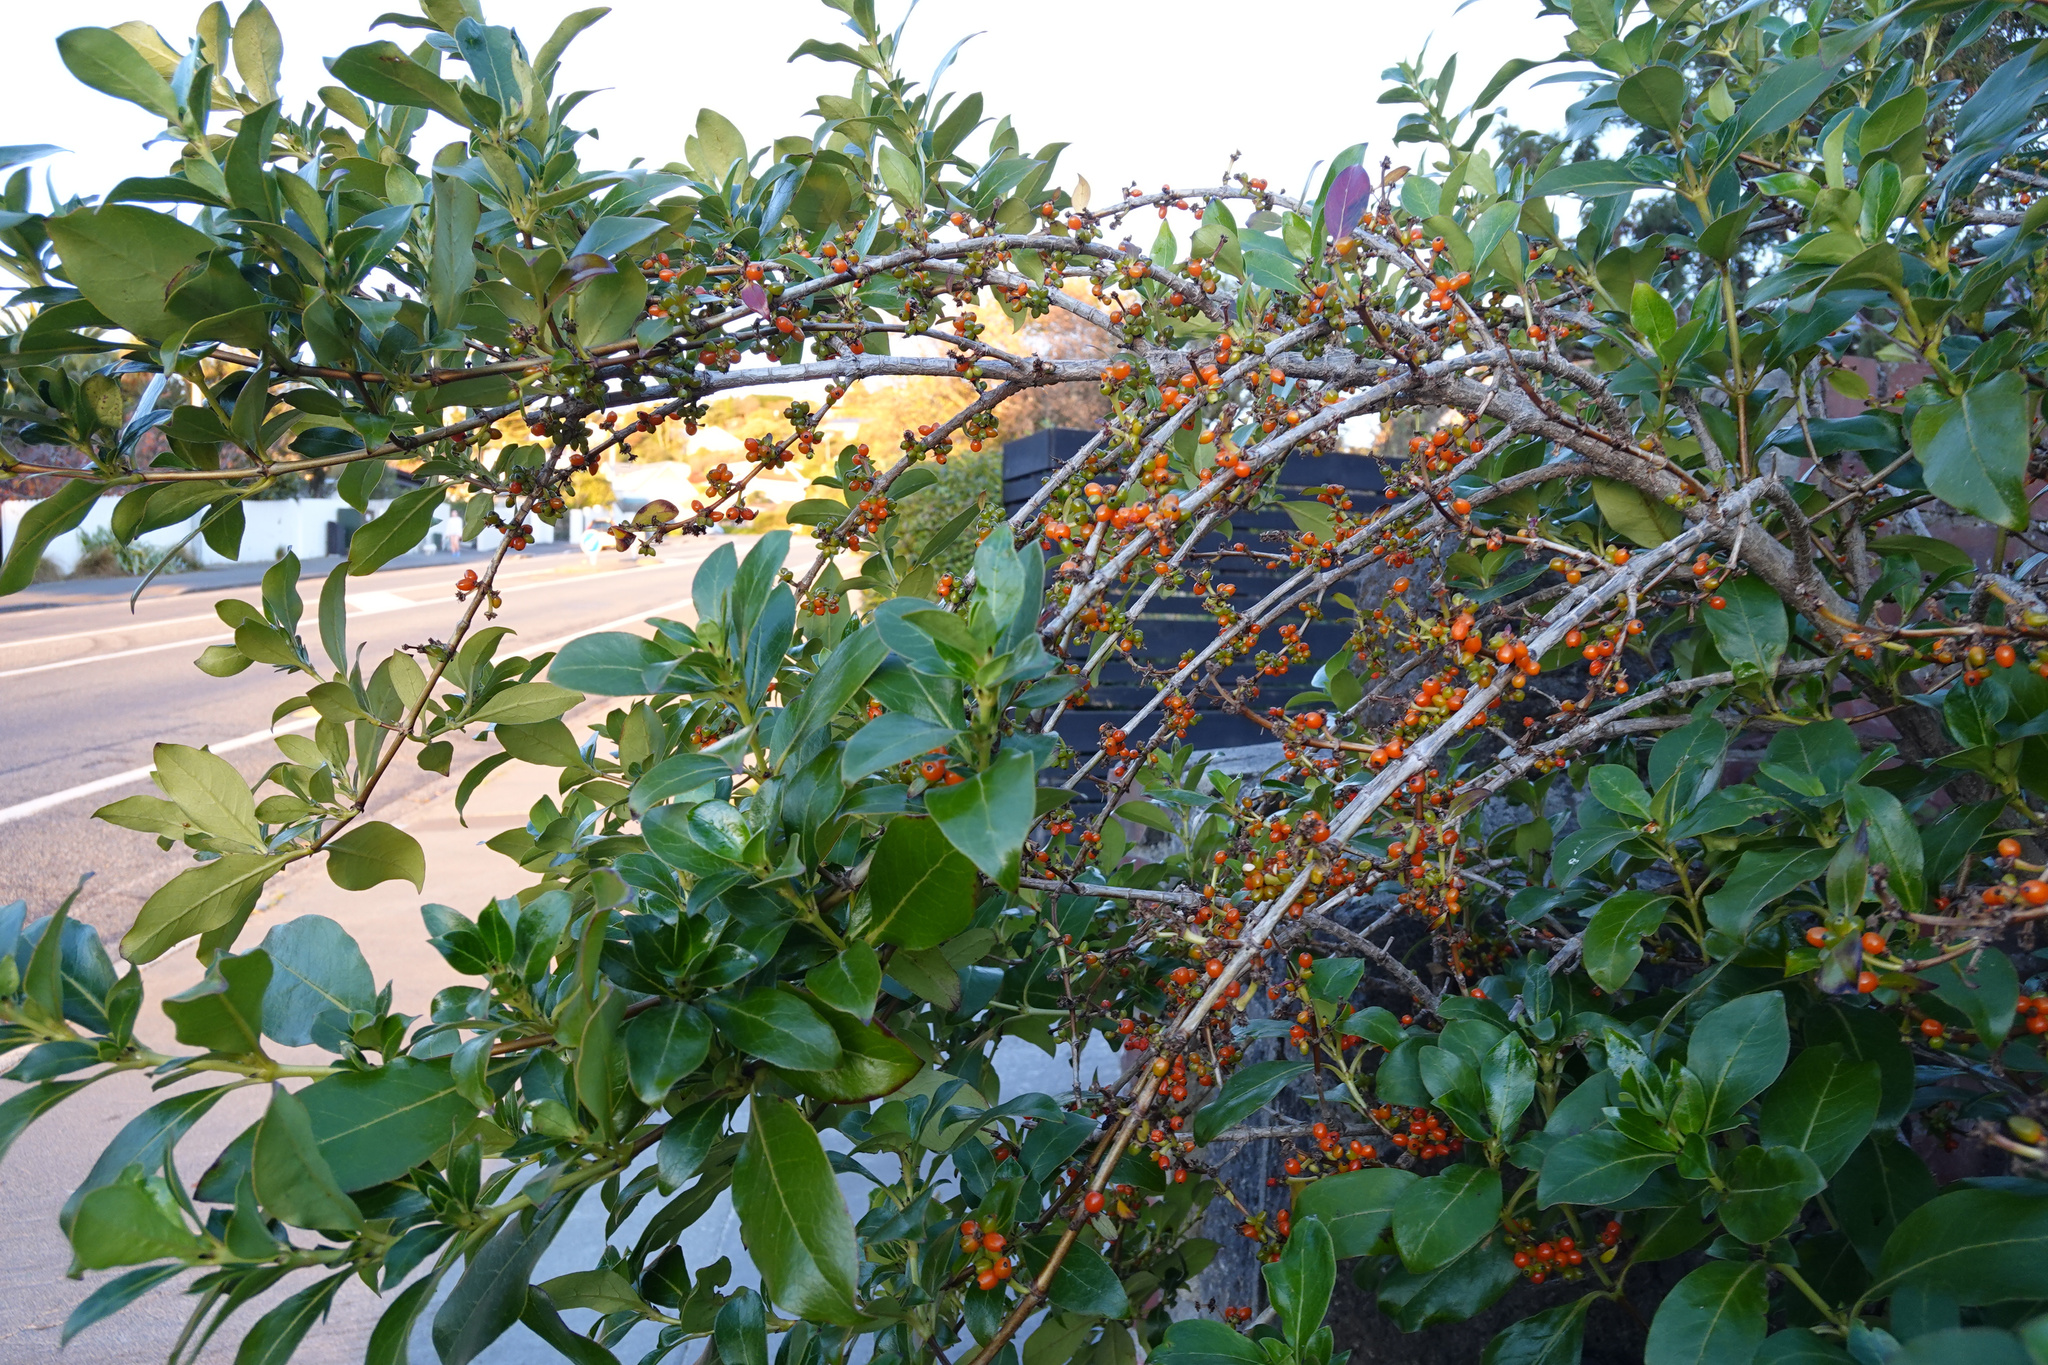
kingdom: Plantae
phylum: Tracheophyta
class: Magnoliopsida
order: Gentianales
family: Rubiaceae
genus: Coprosma
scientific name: Coprosma robusta
